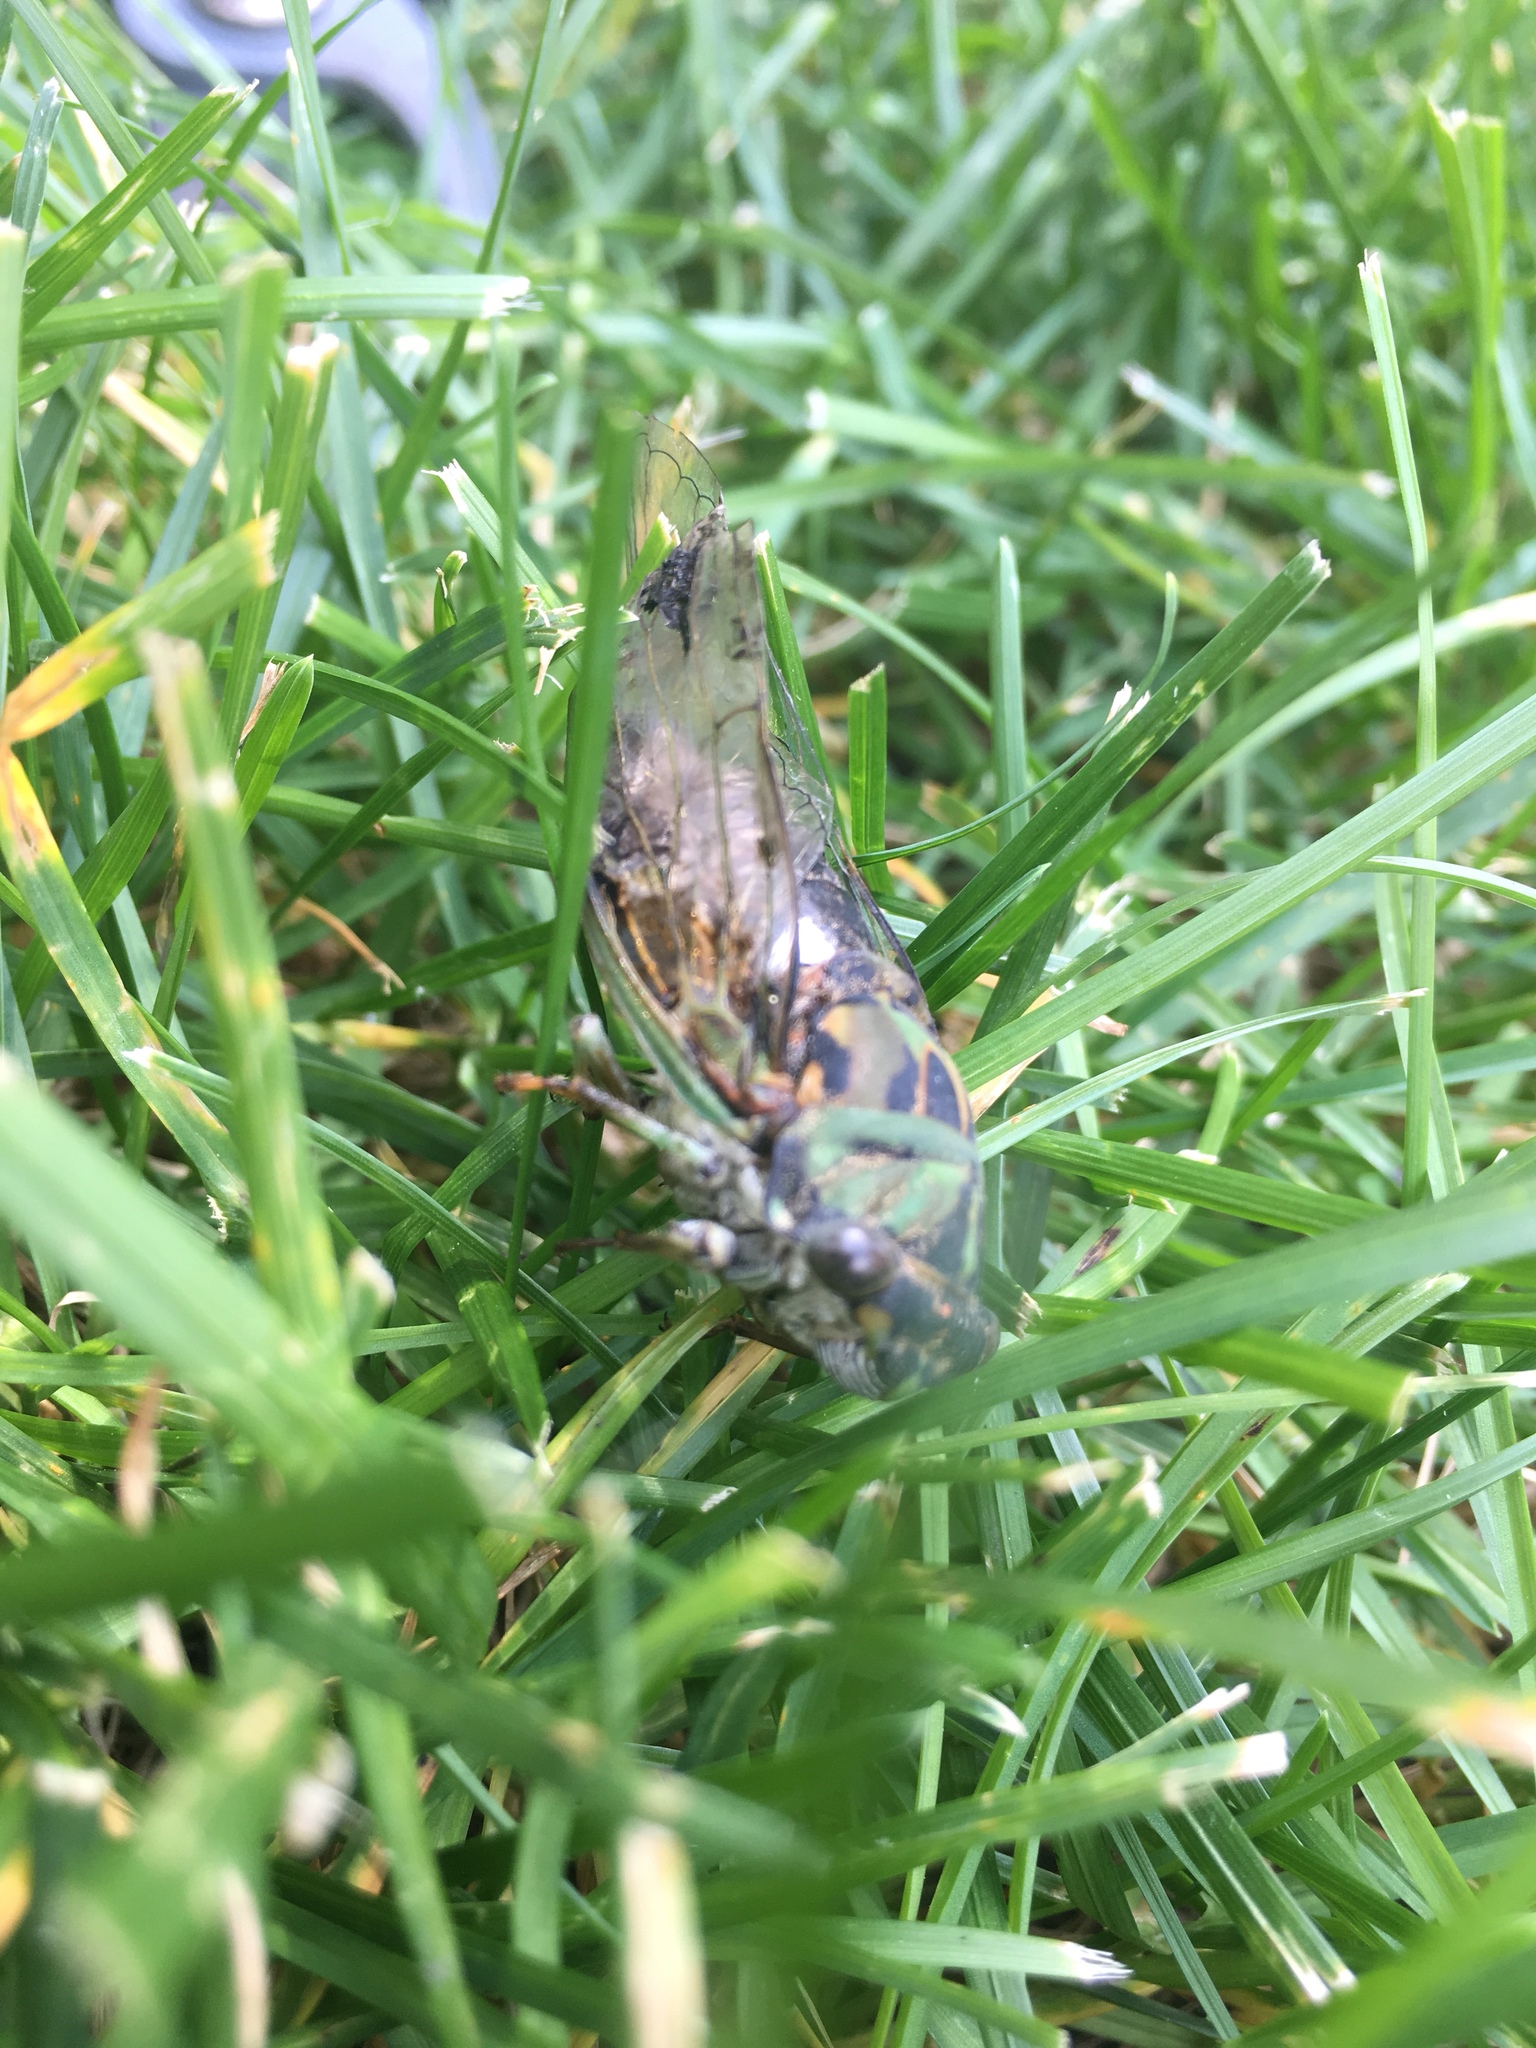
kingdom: Animalia
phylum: Arthropoda
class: Insecta
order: Hemiptera
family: Cicadidae
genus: Neotibicen
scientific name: Neotibicen pruinosus
